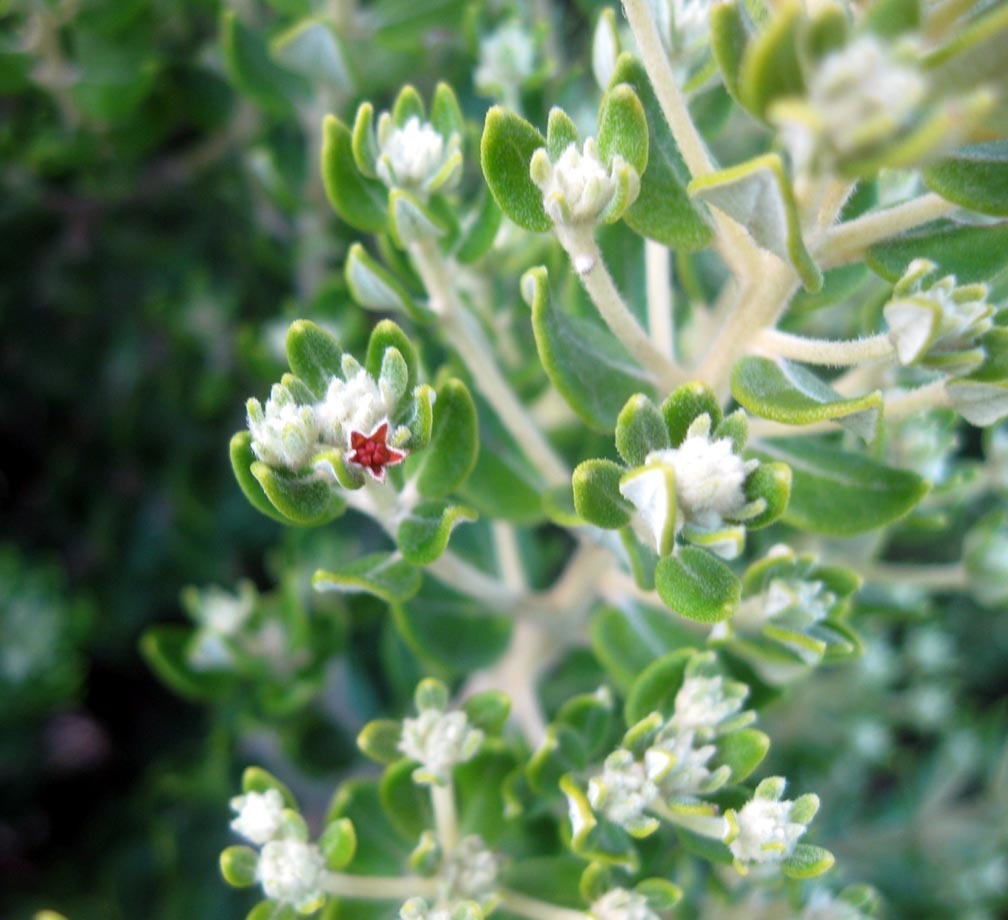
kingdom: Plantae
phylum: Tracheophyta
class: Magnoliopsida
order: Rosales
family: Rhamnaceae
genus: Phylica
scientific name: Phylica buxifolia
